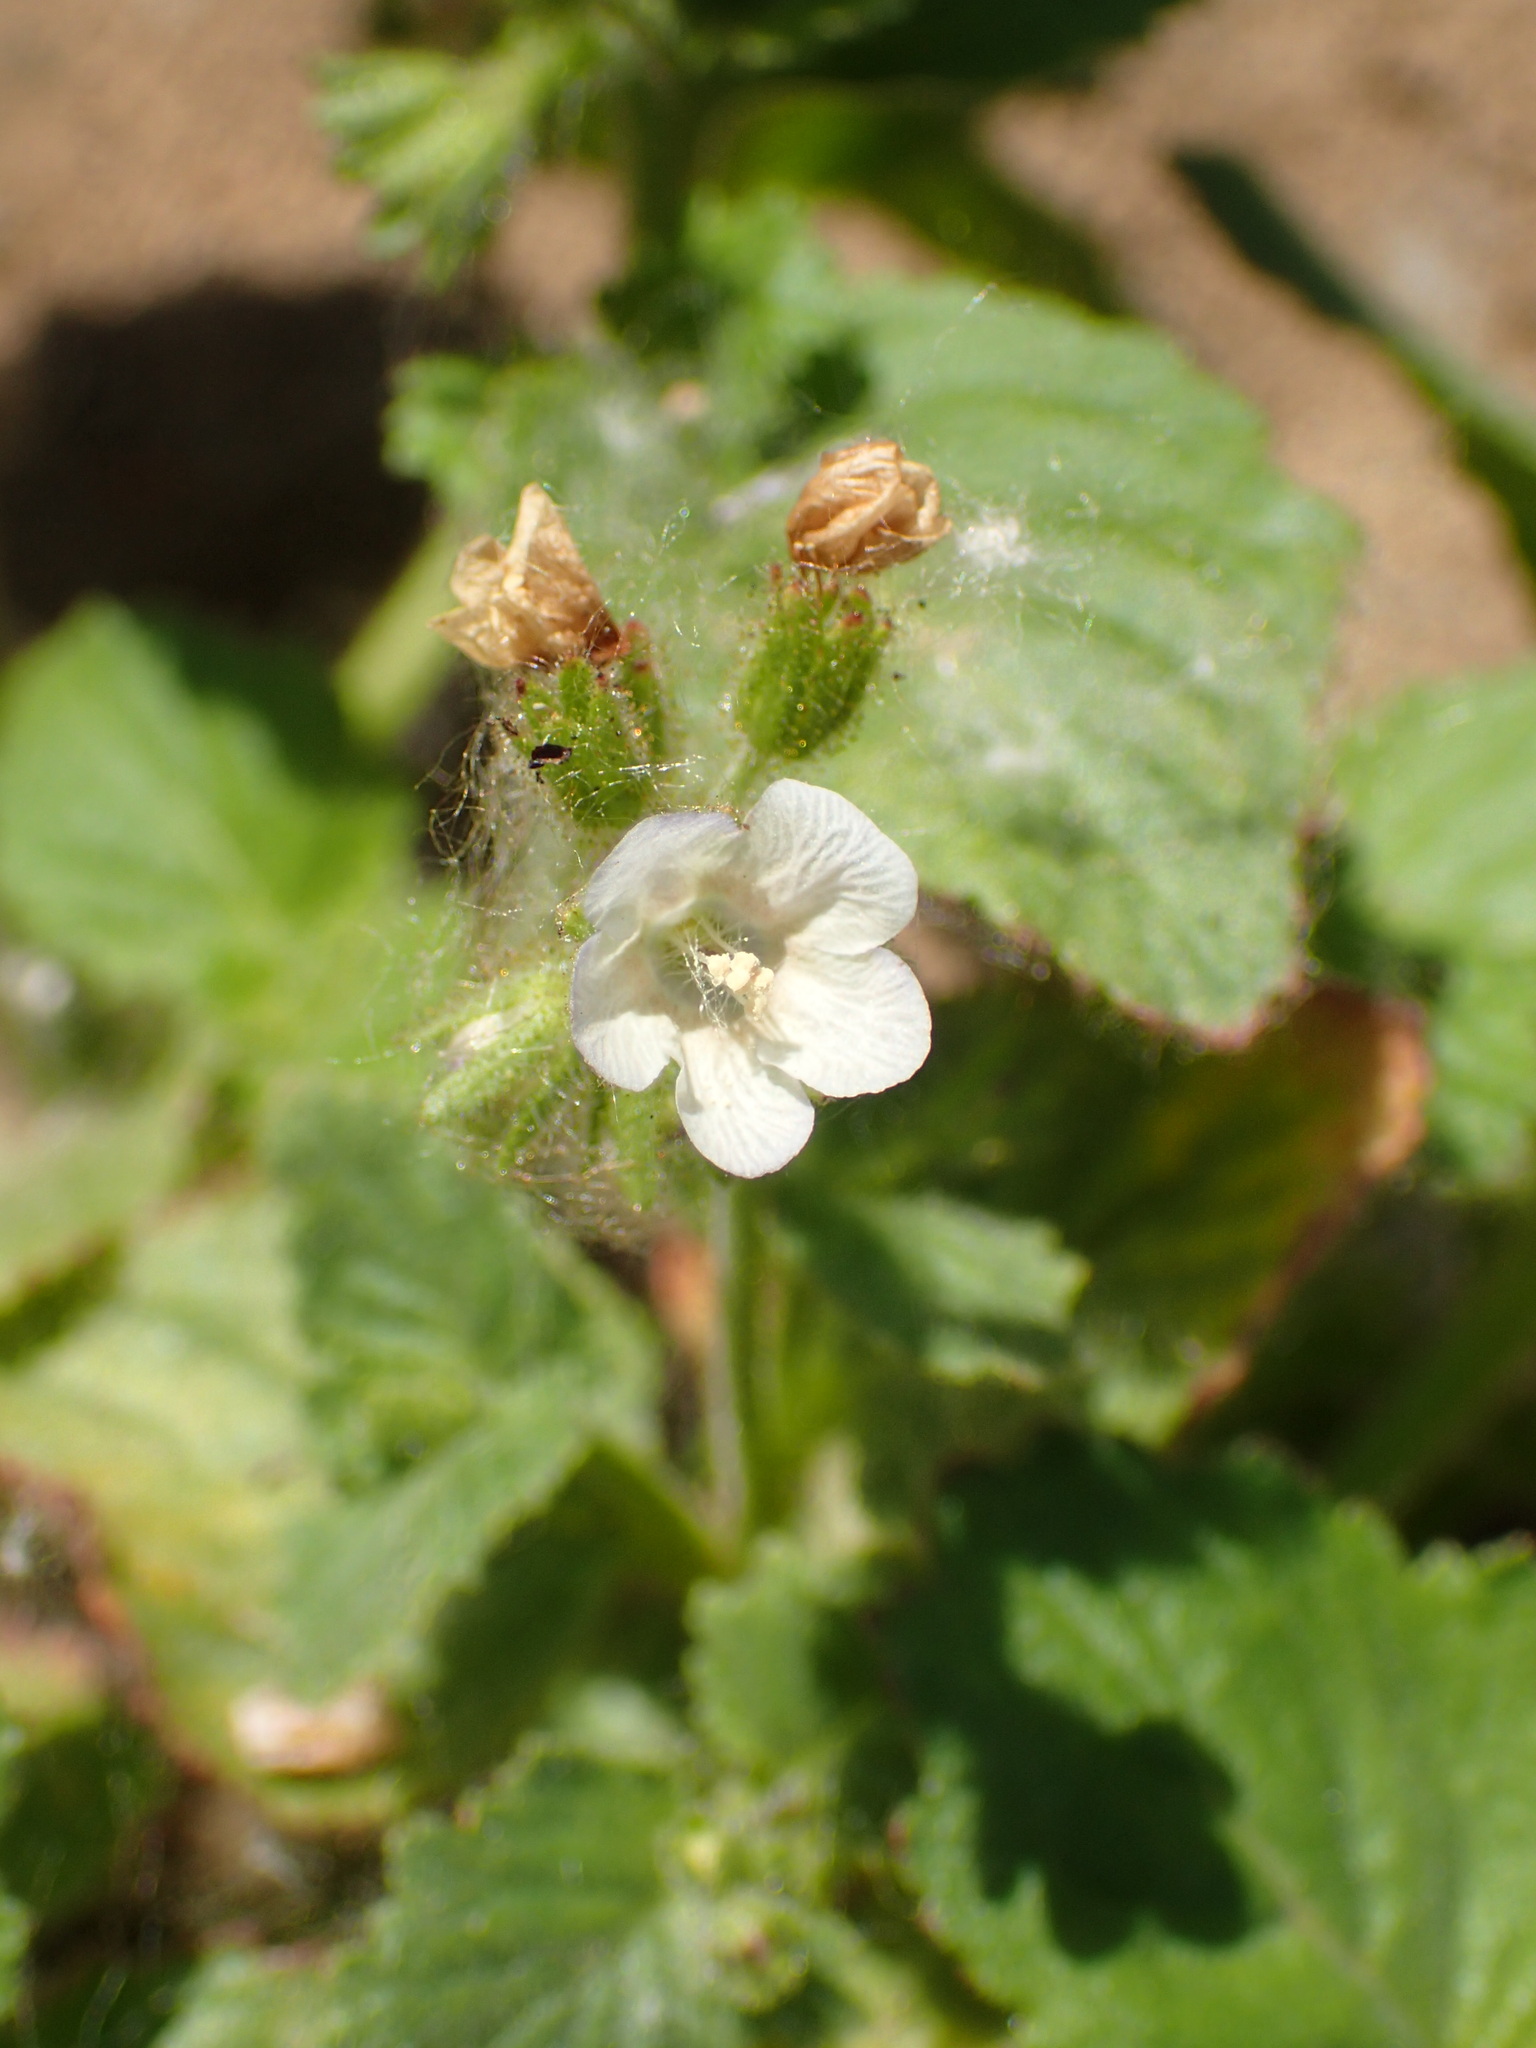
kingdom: Plantae
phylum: Tracheophyta
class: Magnoliopsida
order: Boraginales
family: Hydrophyllaceae
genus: Phacelia
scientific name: Phacelia viscida
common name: Sticky phacelia
